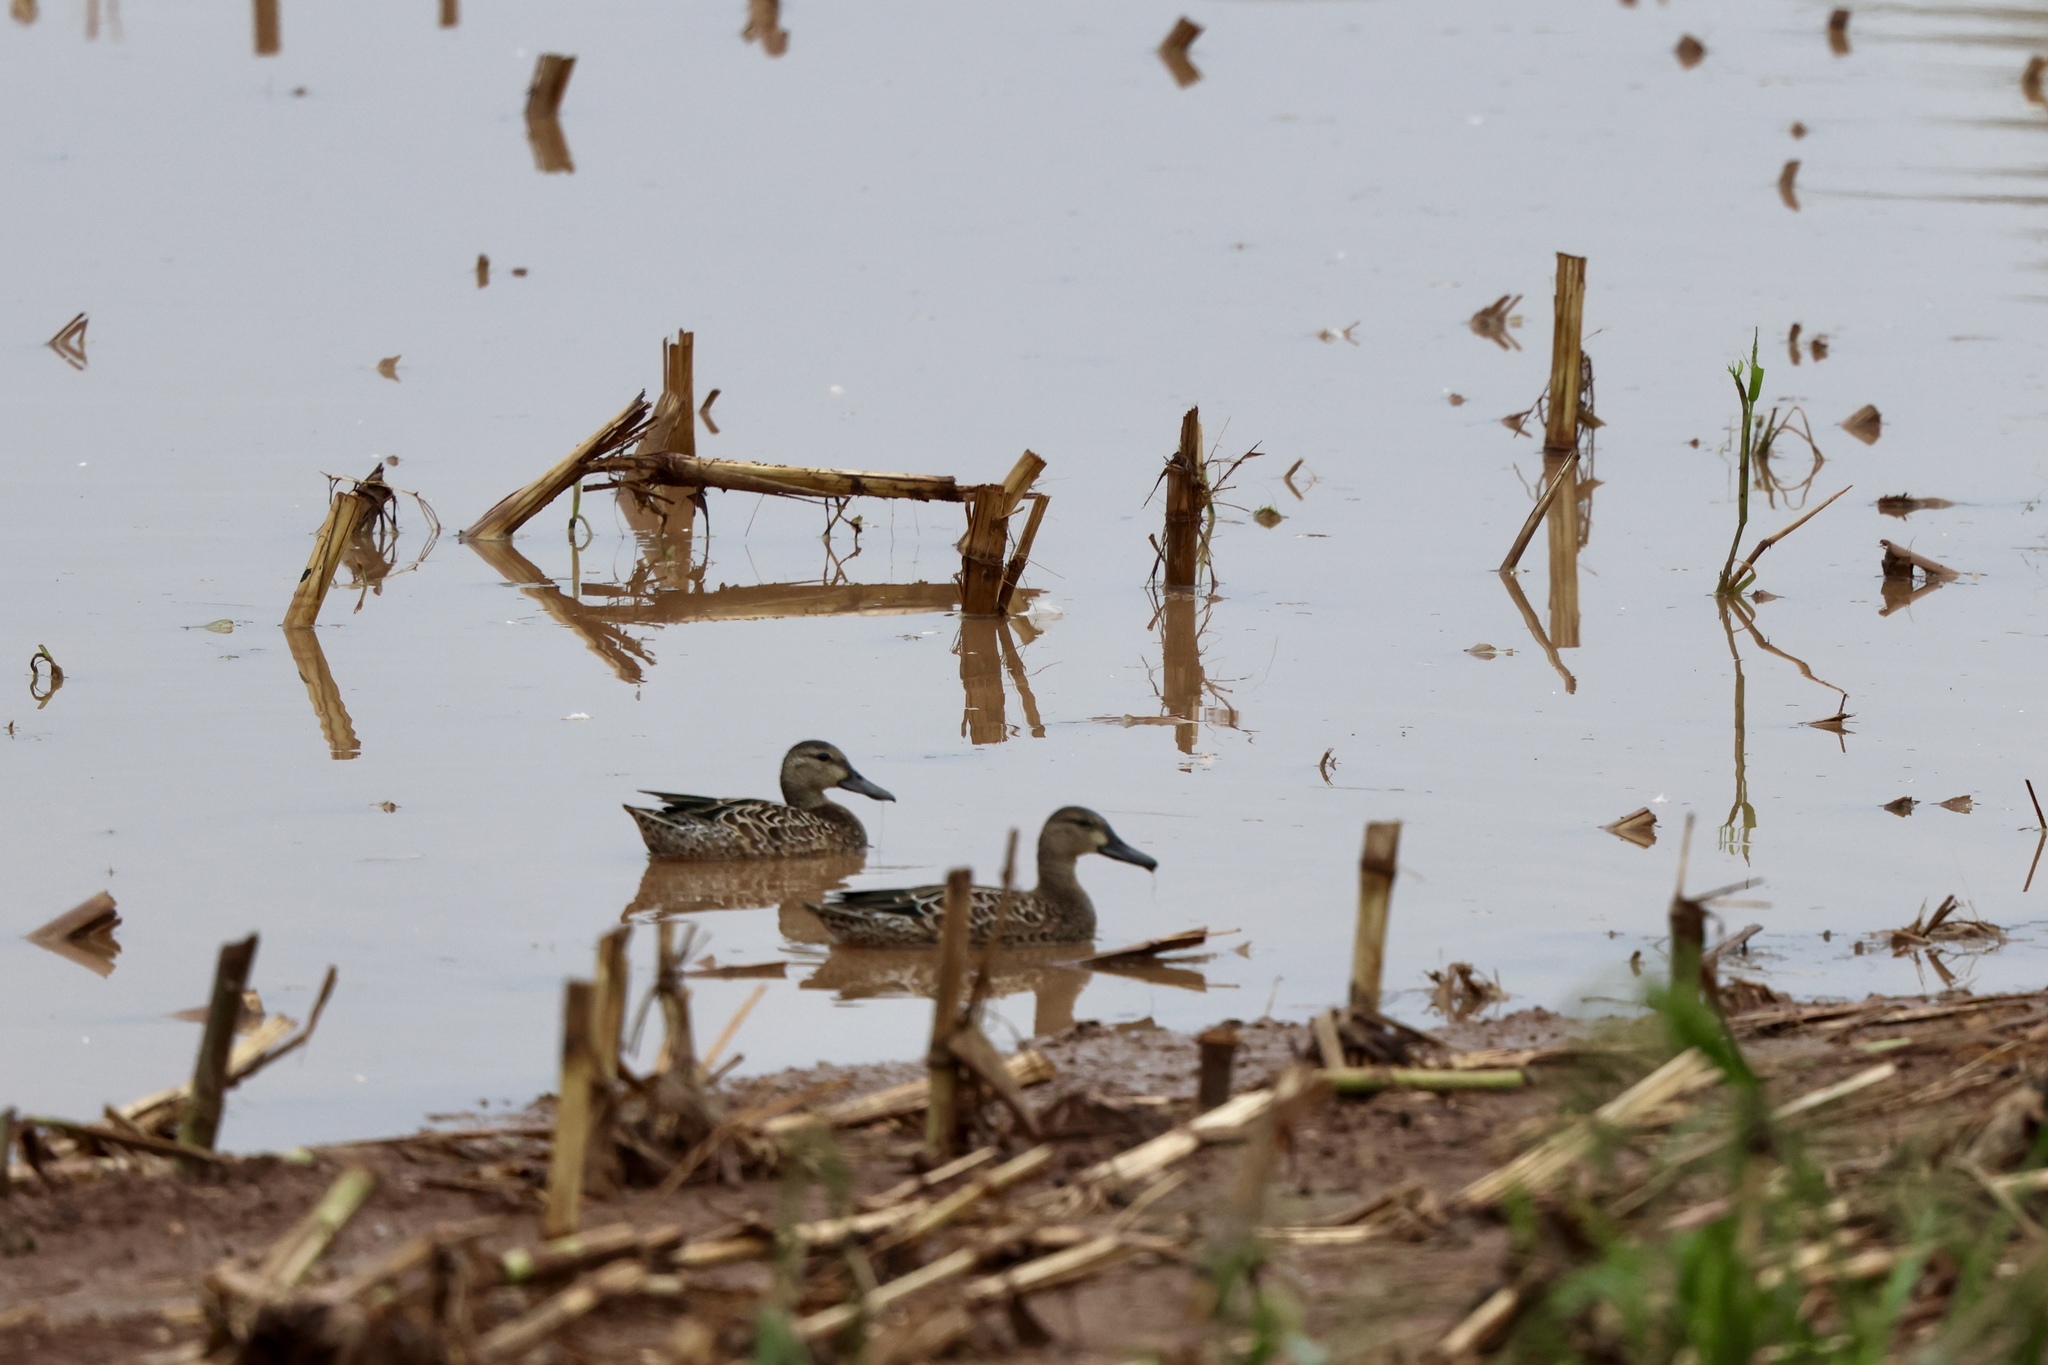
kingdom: Animalia
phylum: Chordata
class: Aves
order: Anseriformes
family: Anatidae
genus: Spatula
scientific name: Spatula discors
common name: Blue-winged teal
